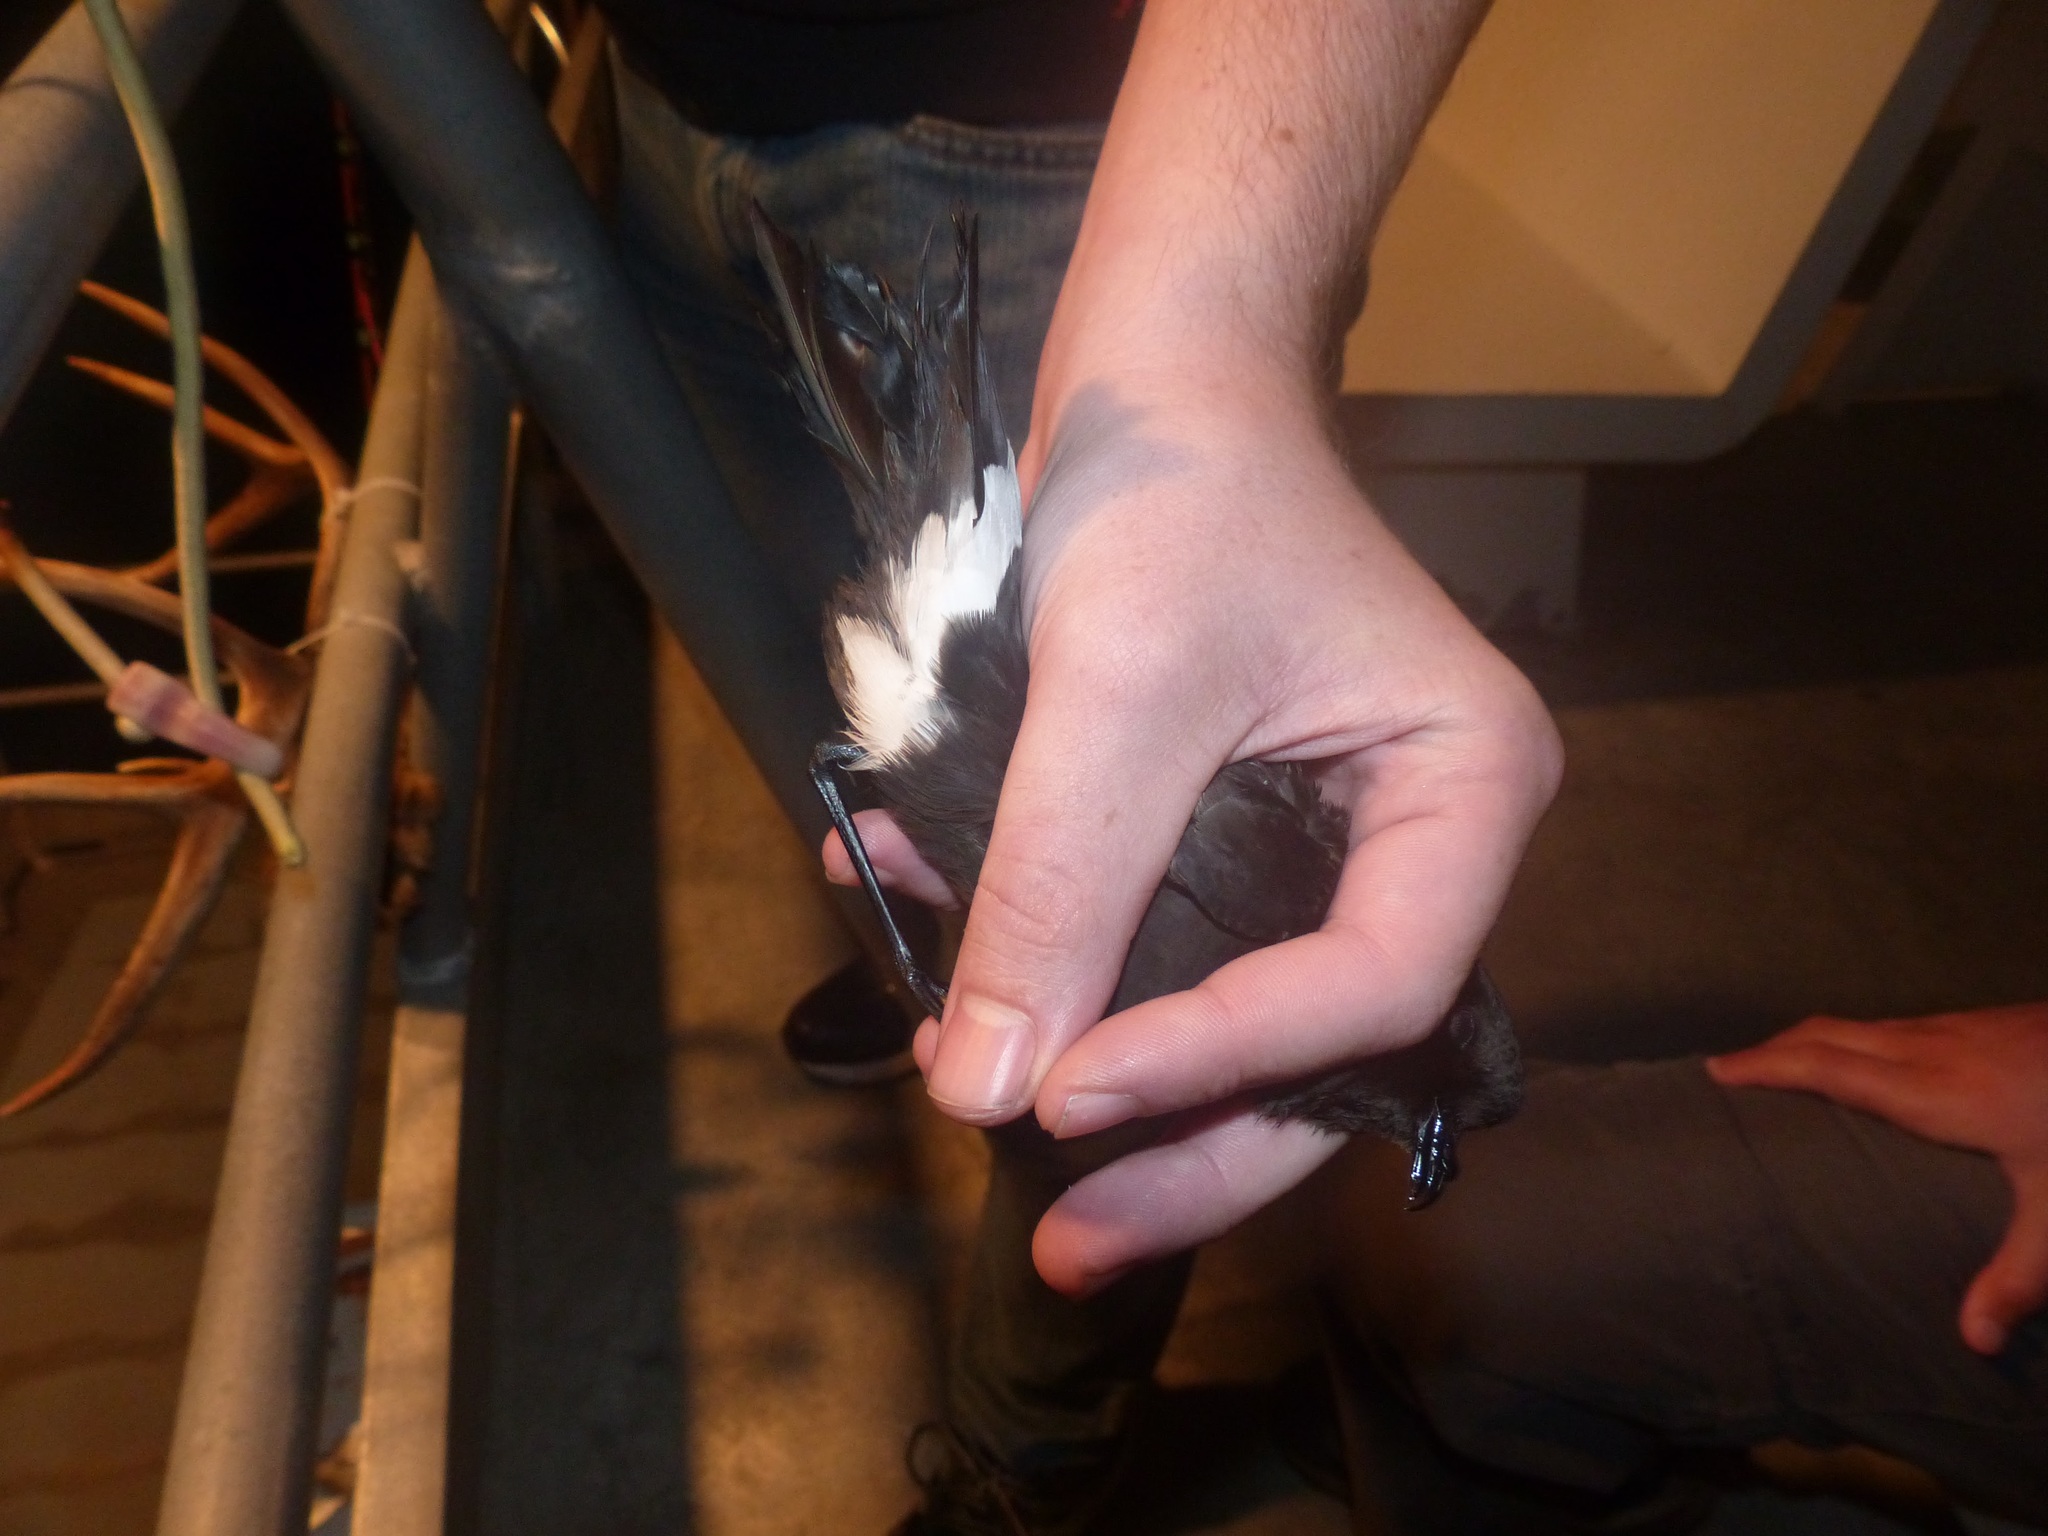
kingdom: Animalia
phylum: Chordata
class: Aves
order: Procellariiformes
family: Hydrobatidae
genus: Oceanites
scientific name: Oceanites oceanicus
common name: Wilson's storm petrel
